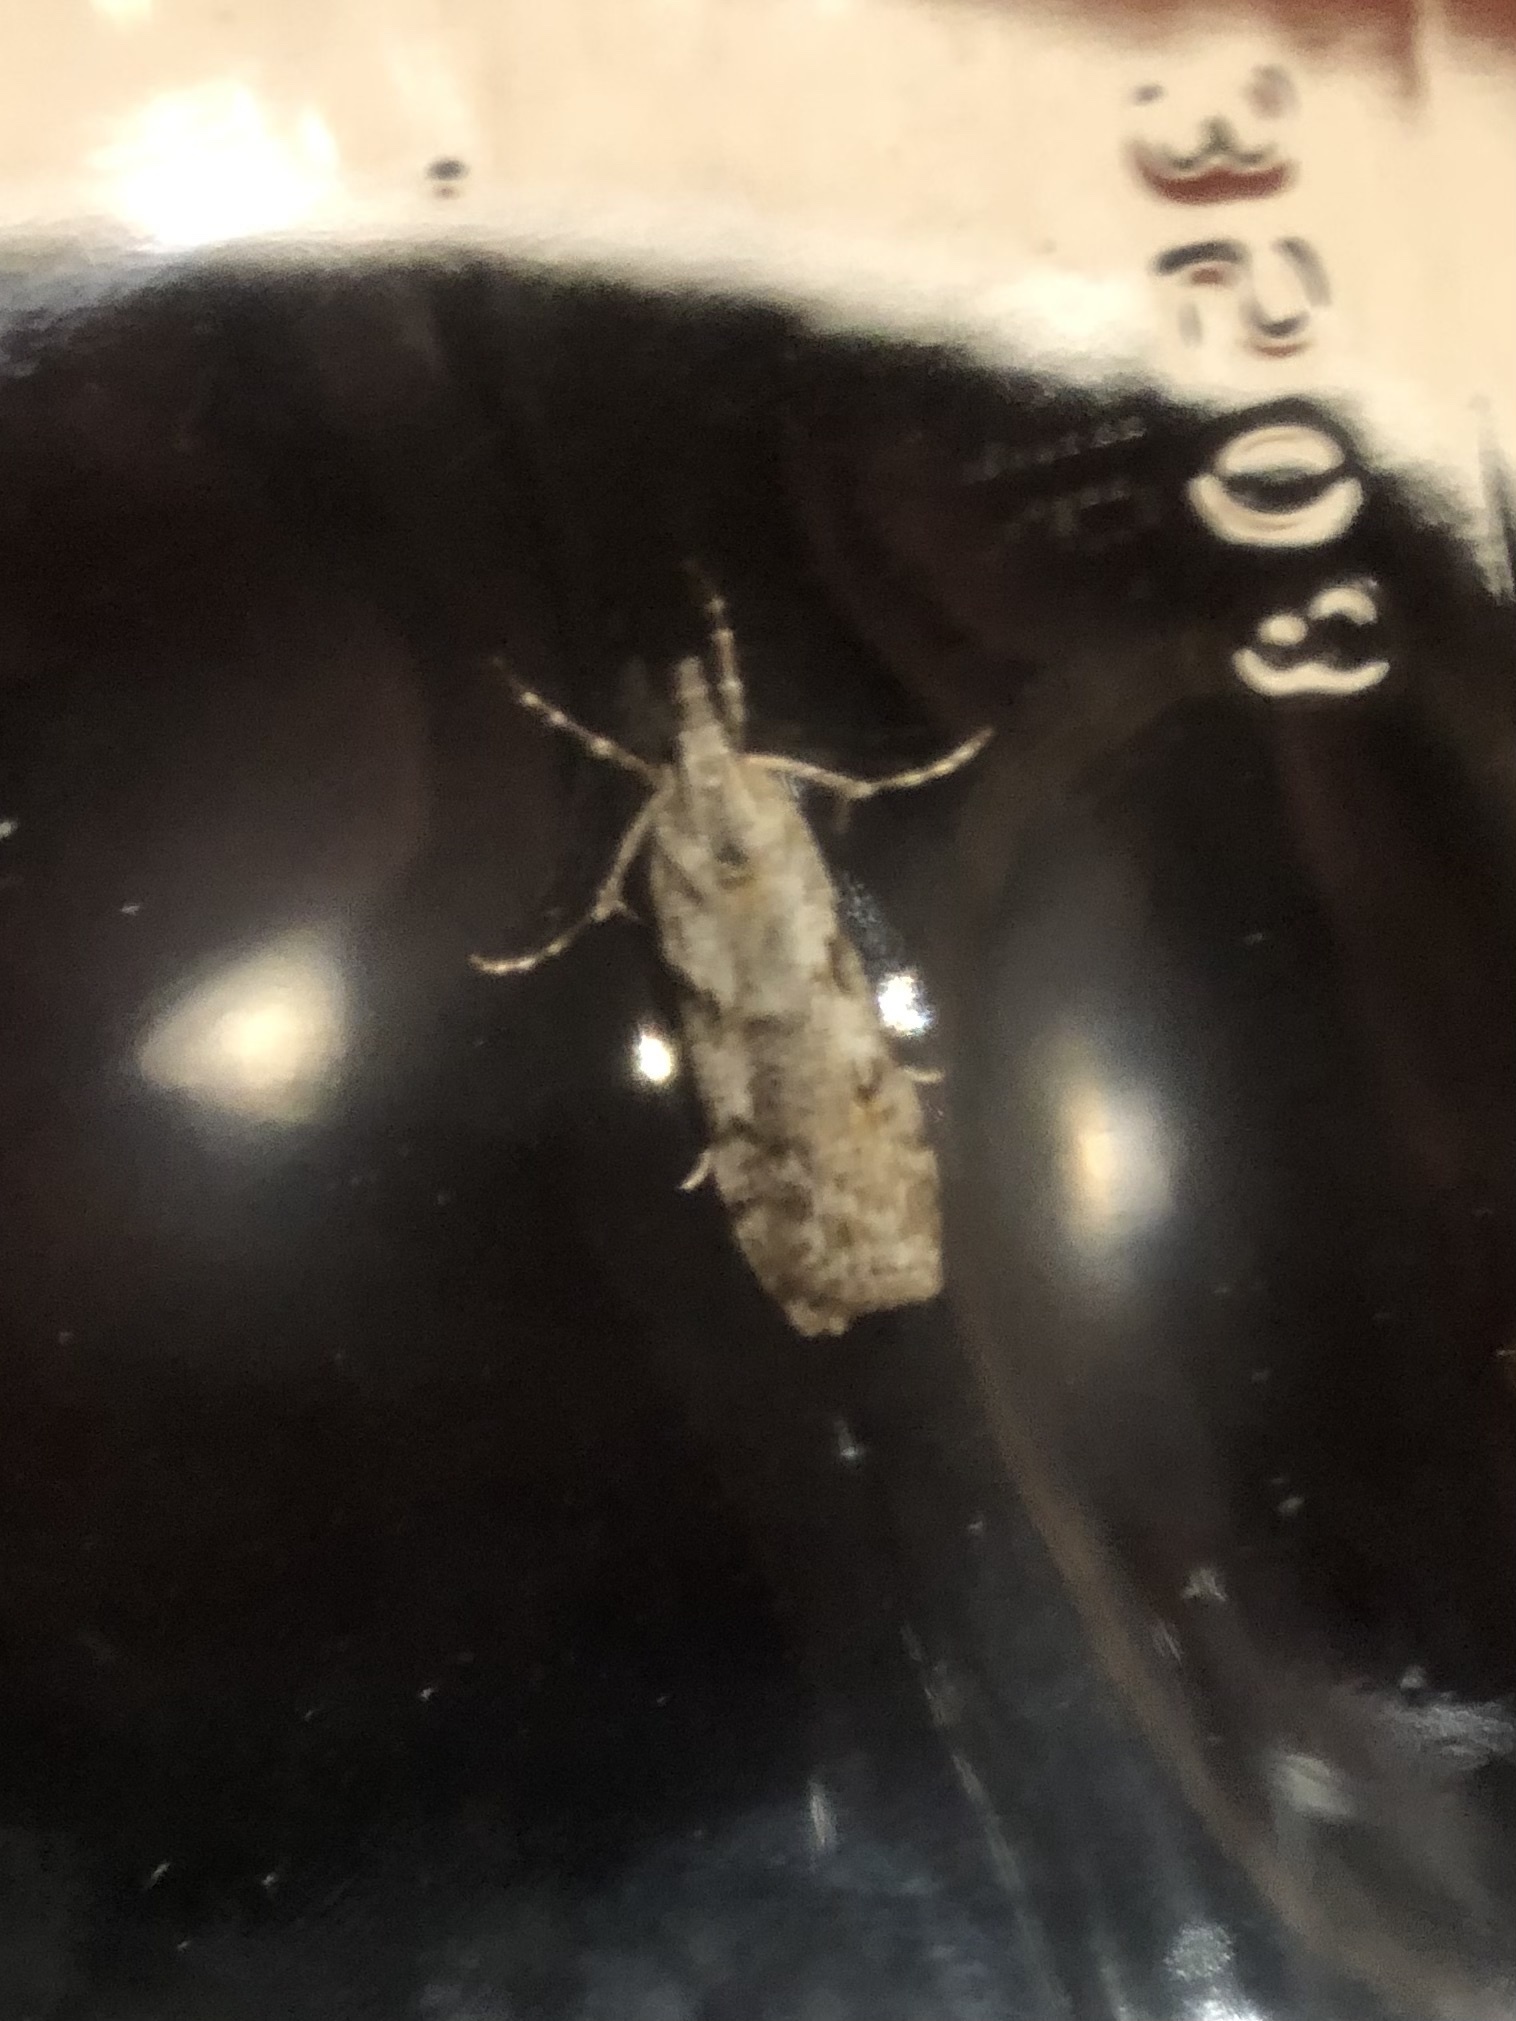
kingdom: Animalia
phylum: Arthropoda
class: Insecta
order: Lepidoptera
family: Crambidae
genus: Scoparia
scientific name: Scoparia halopis
